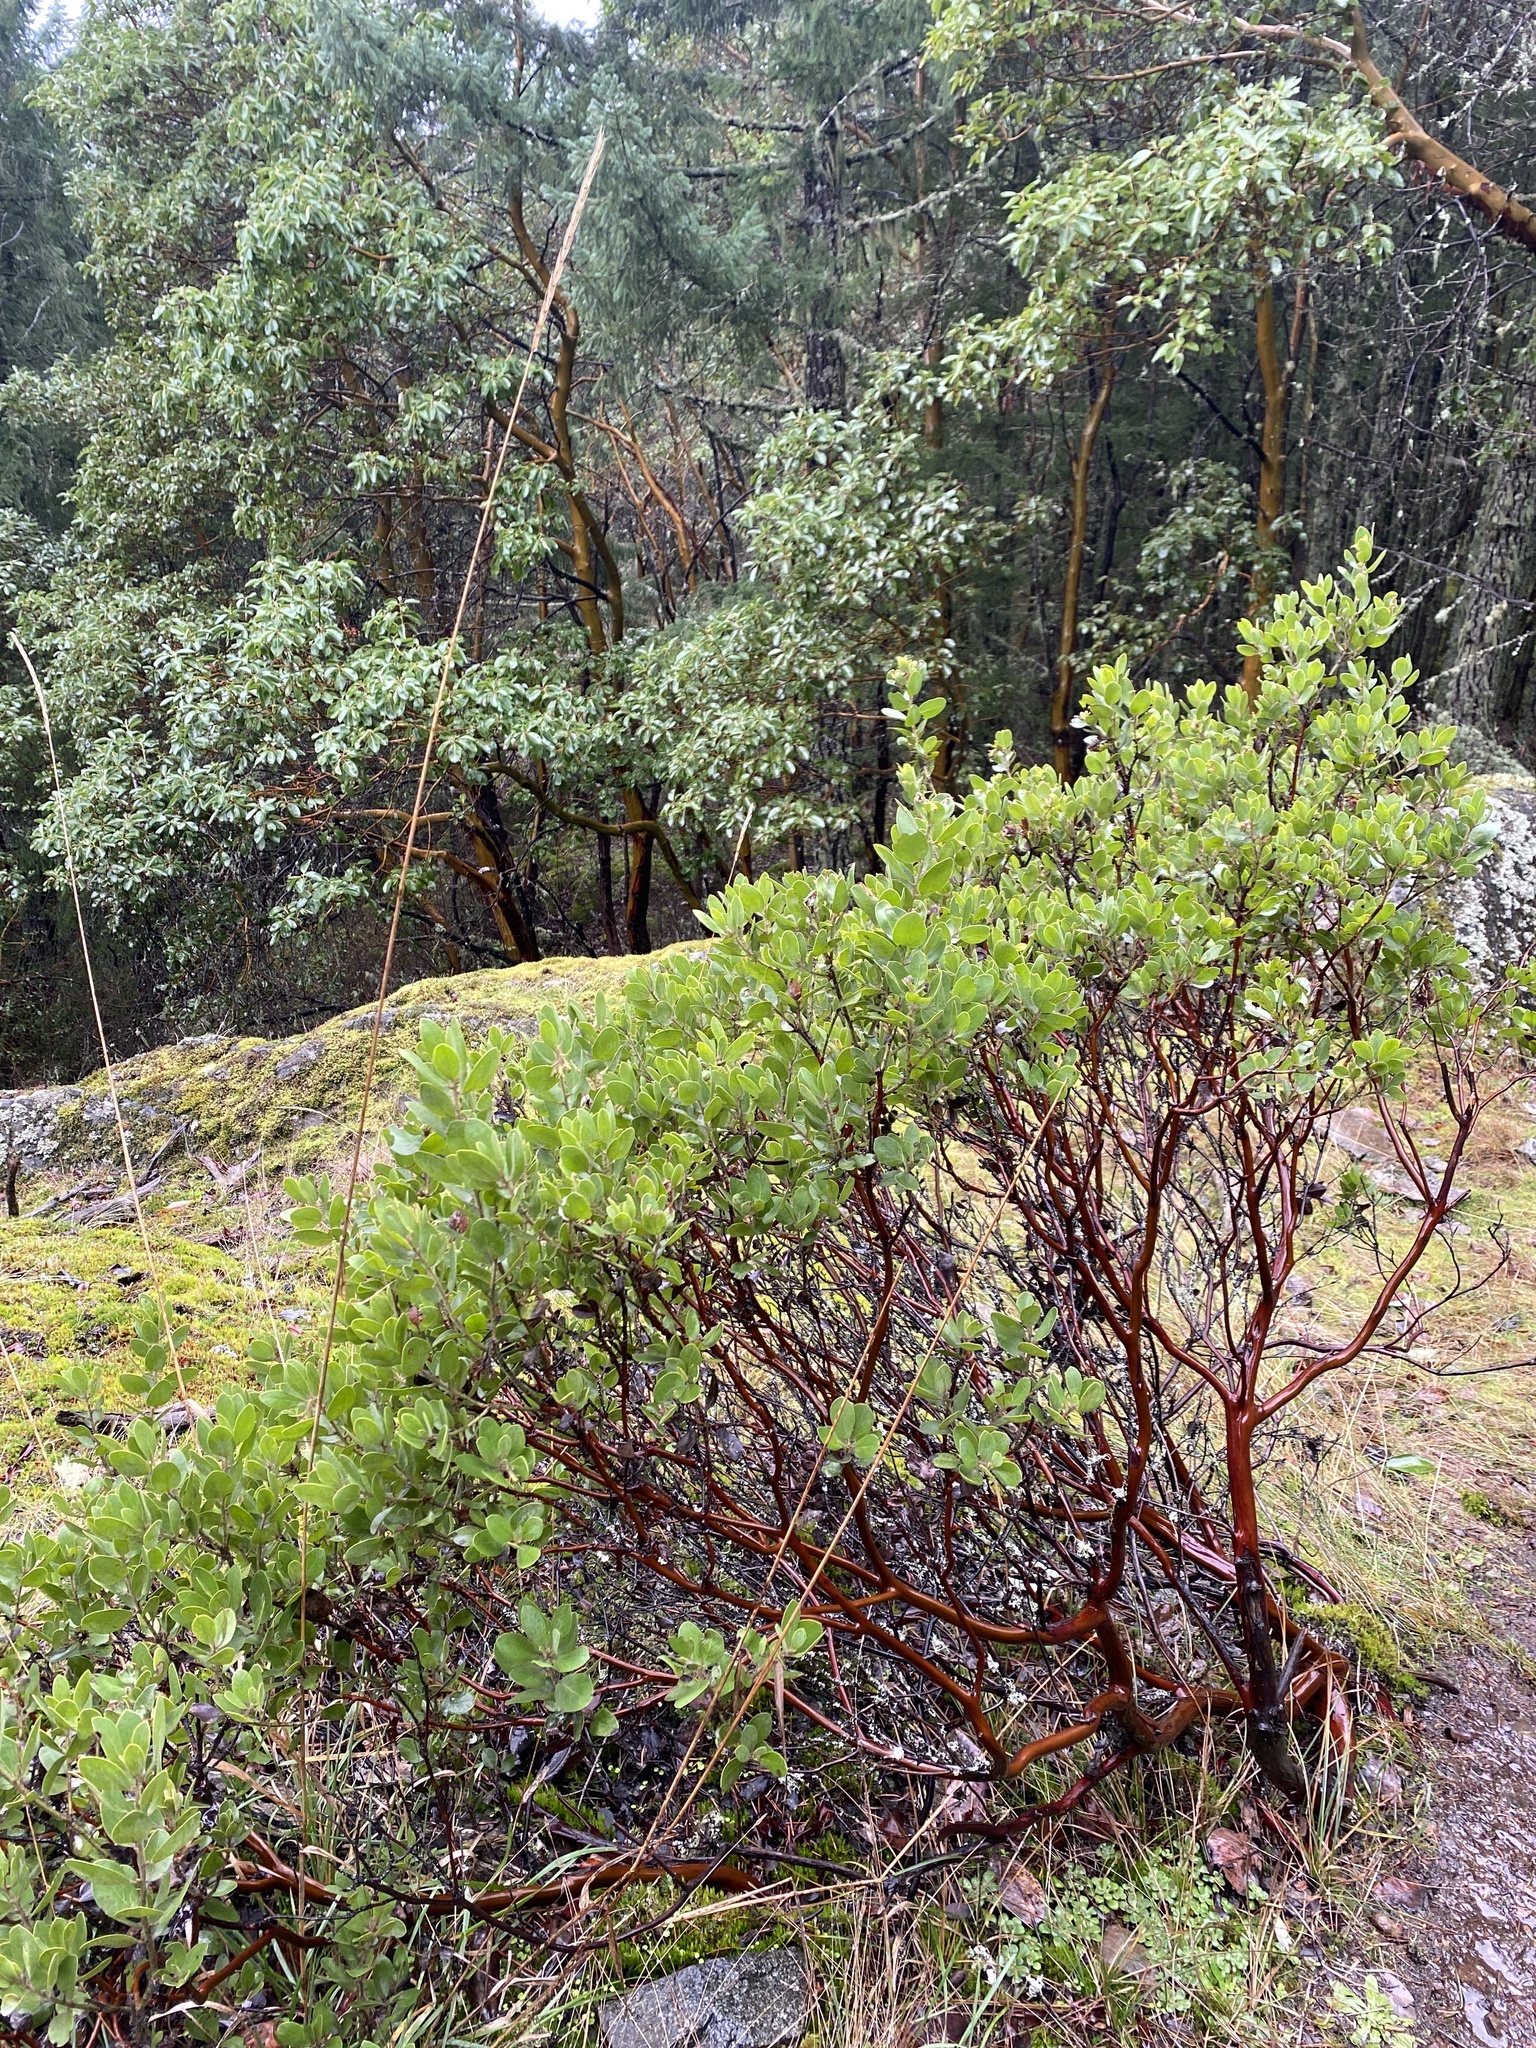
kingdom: Plantae
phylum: Tracheophyta
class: Magnoliopsida
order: Ericales
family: Ericaceae
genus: Arctostaphylos
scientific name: Arctostaphylos columbiana
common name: Bristly bearberry
